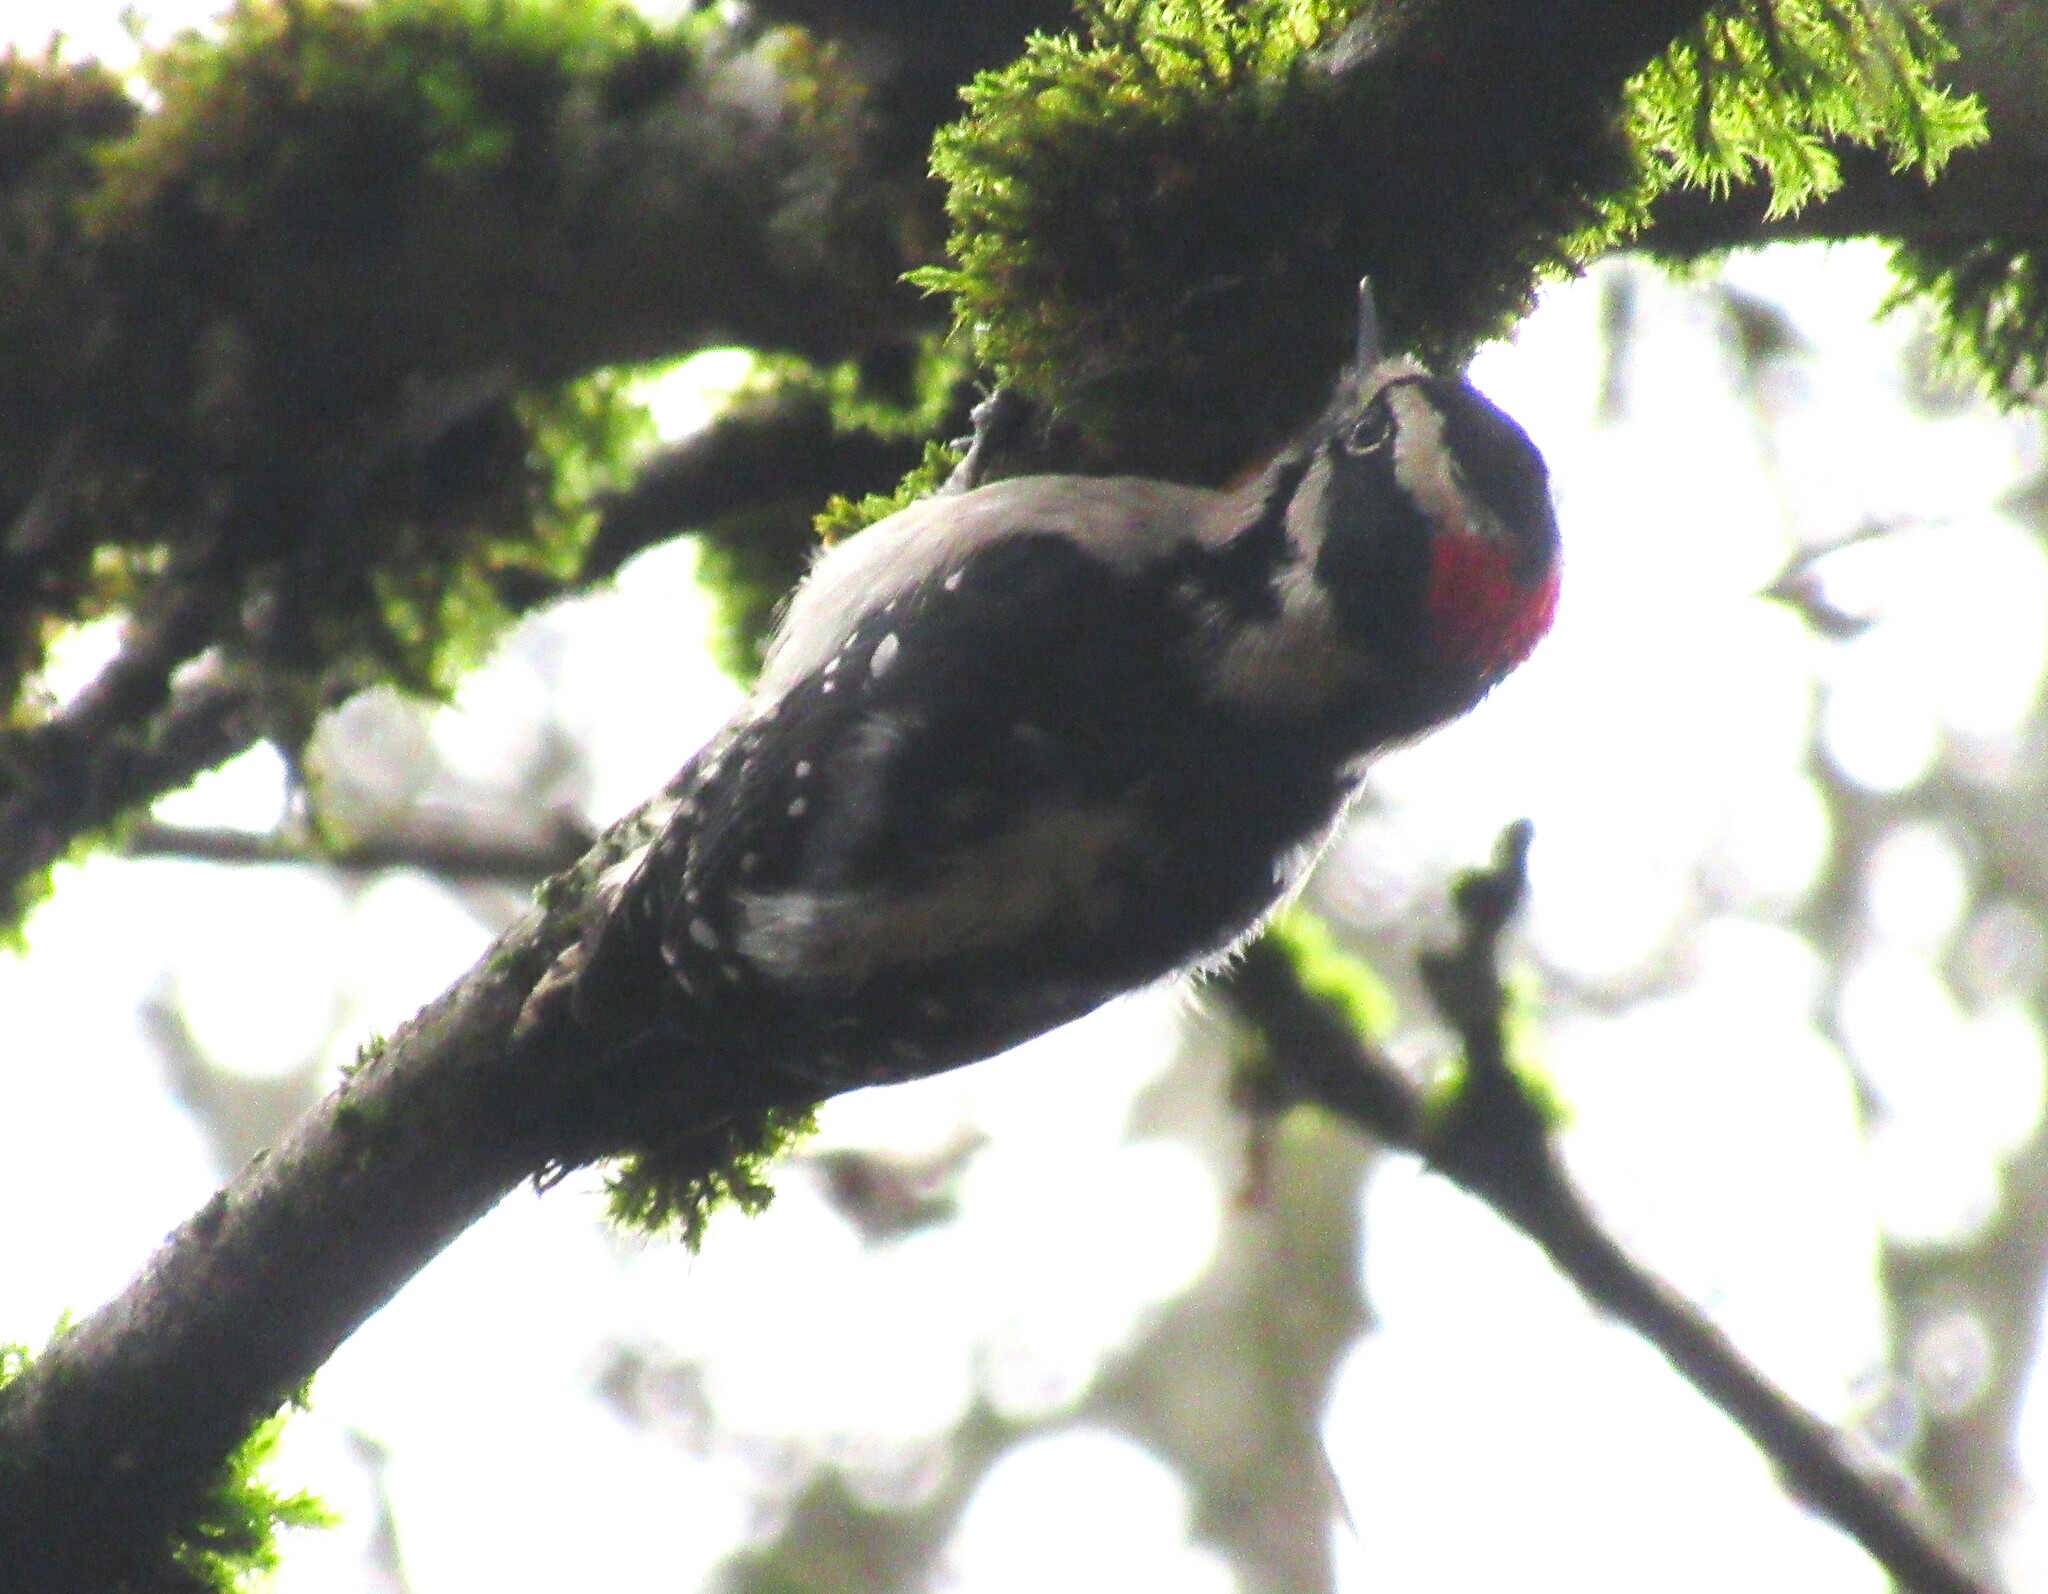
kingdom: Animalia
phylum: Chordata
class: Aves
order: Piciformes
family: Picidae
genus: Dryobates
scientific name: Dryobates pubescens
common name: Downy woodpecker
